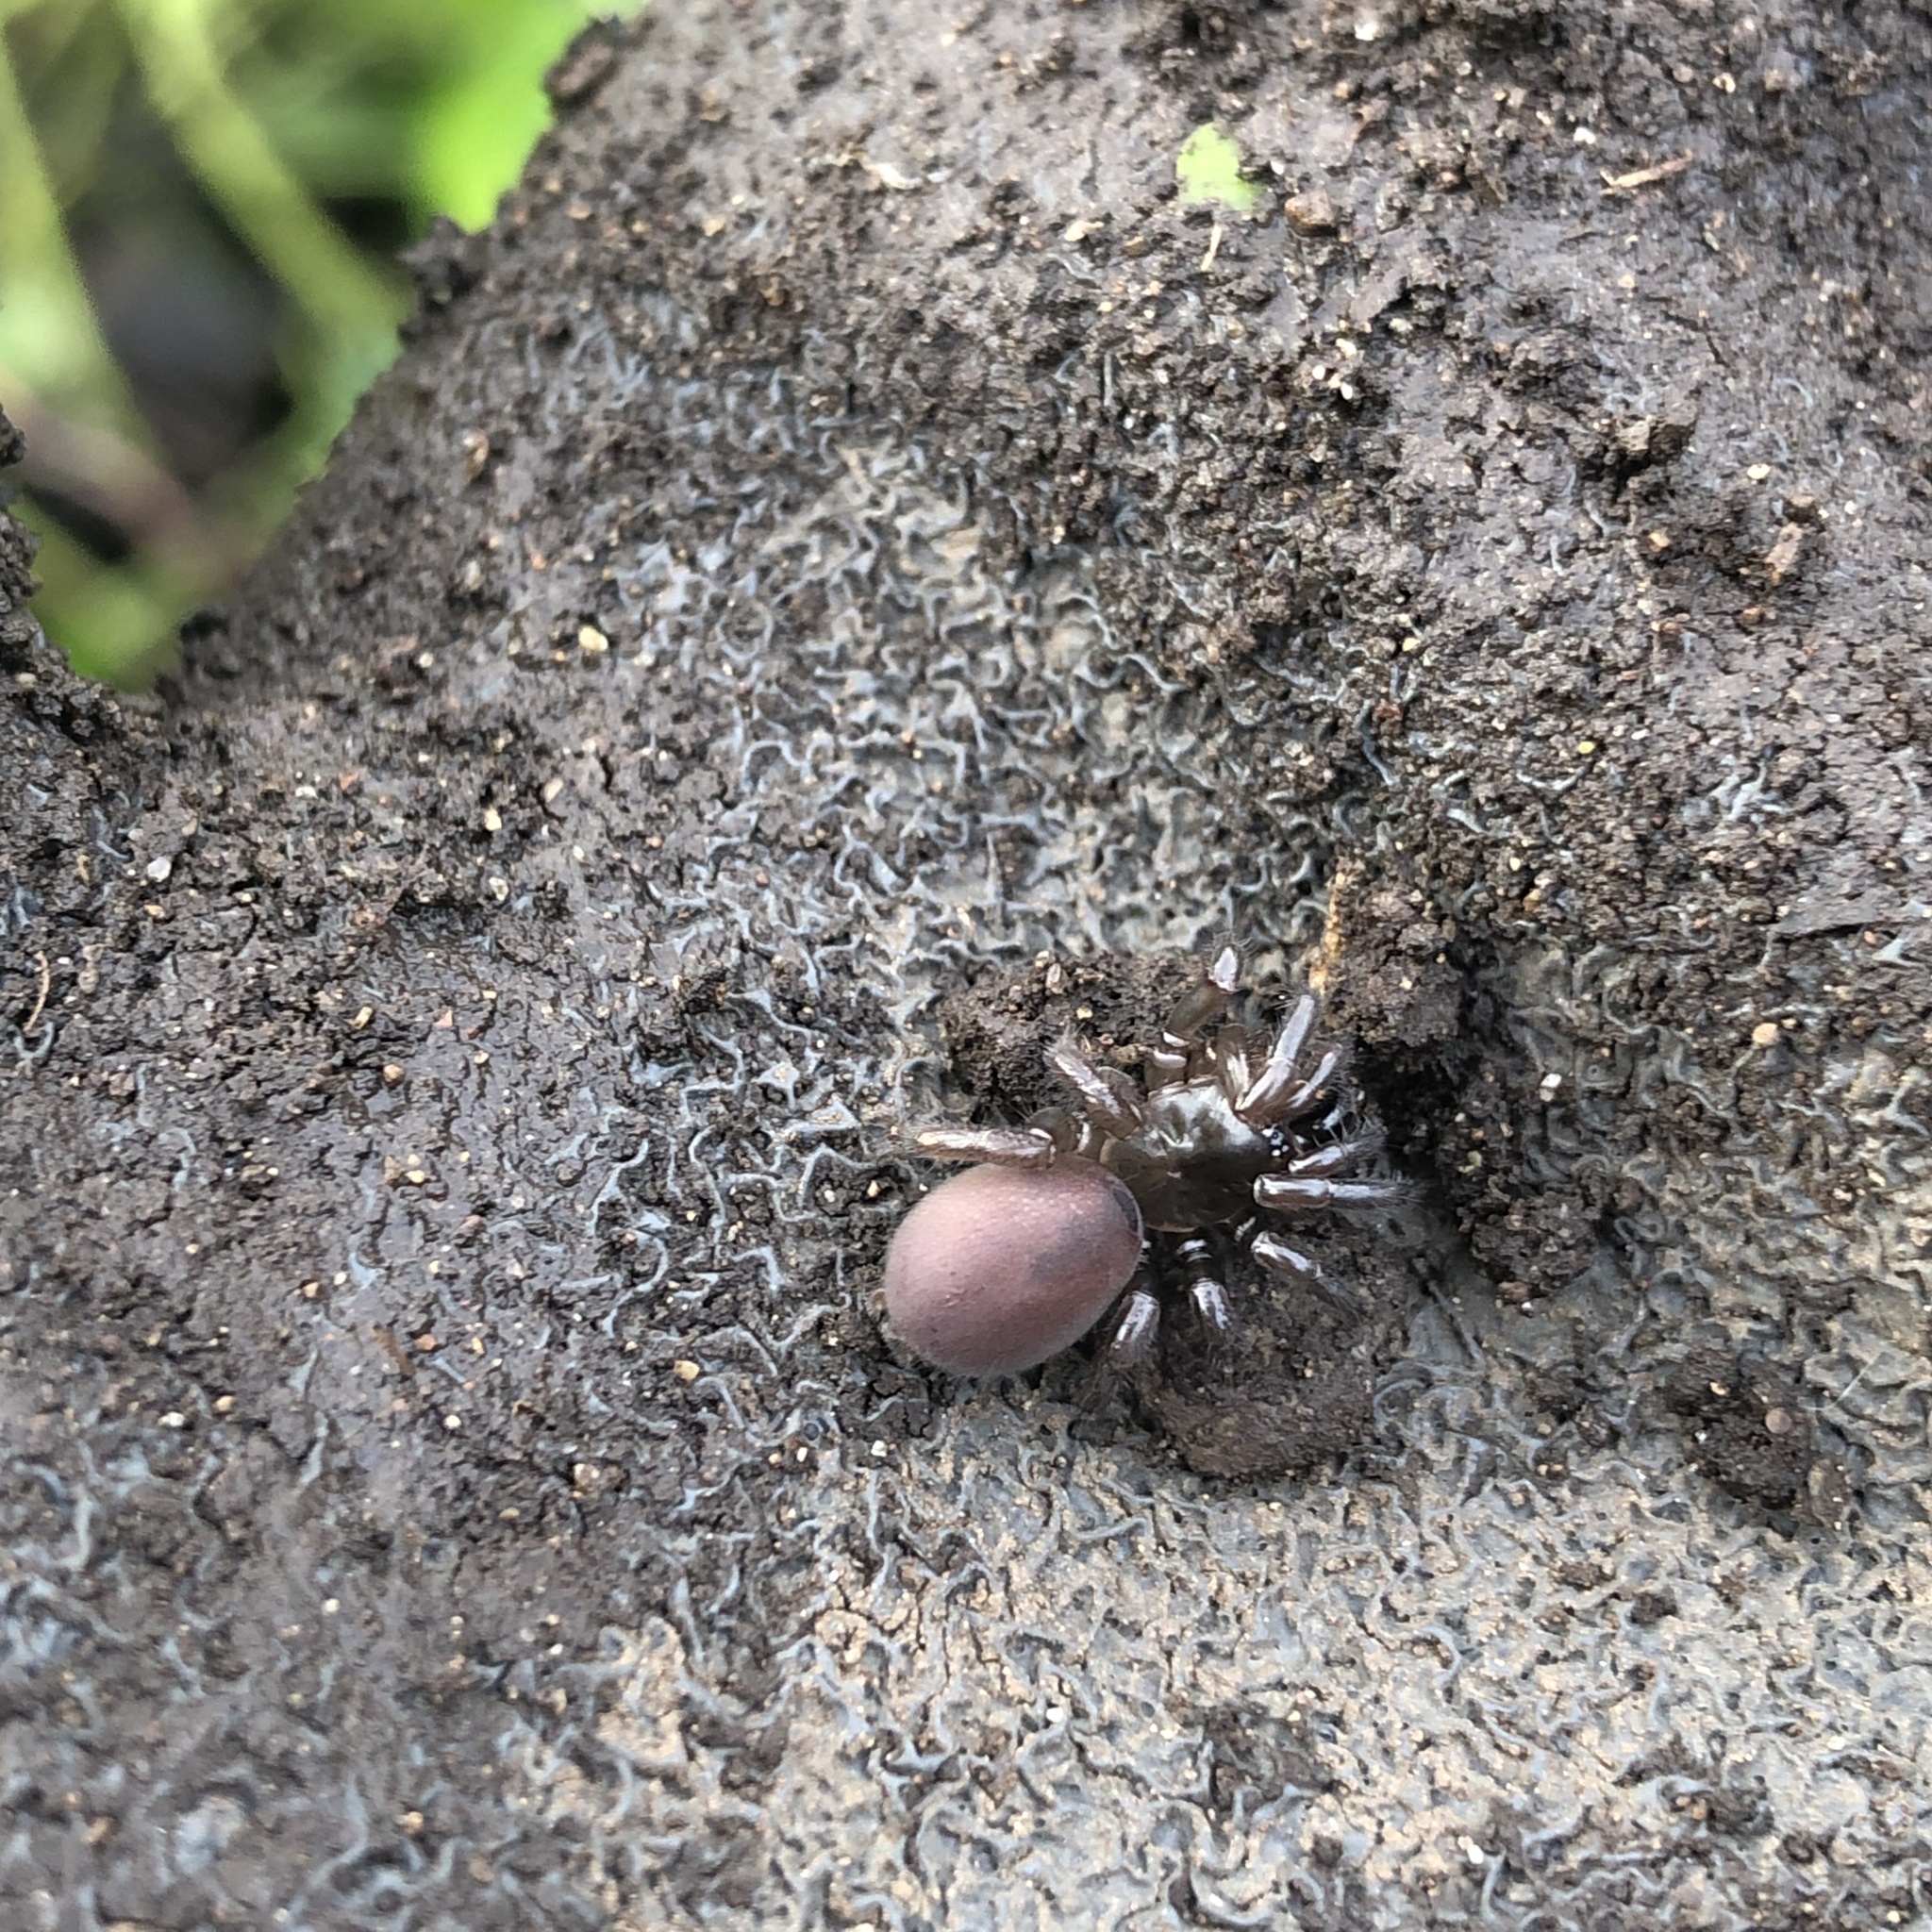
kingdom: Animalia
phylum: Arthropoda
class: Arachnida
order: Araneae
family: Antrodiaetidae
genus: Antrodiaetus
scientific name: Antrodiaetus pacificus
